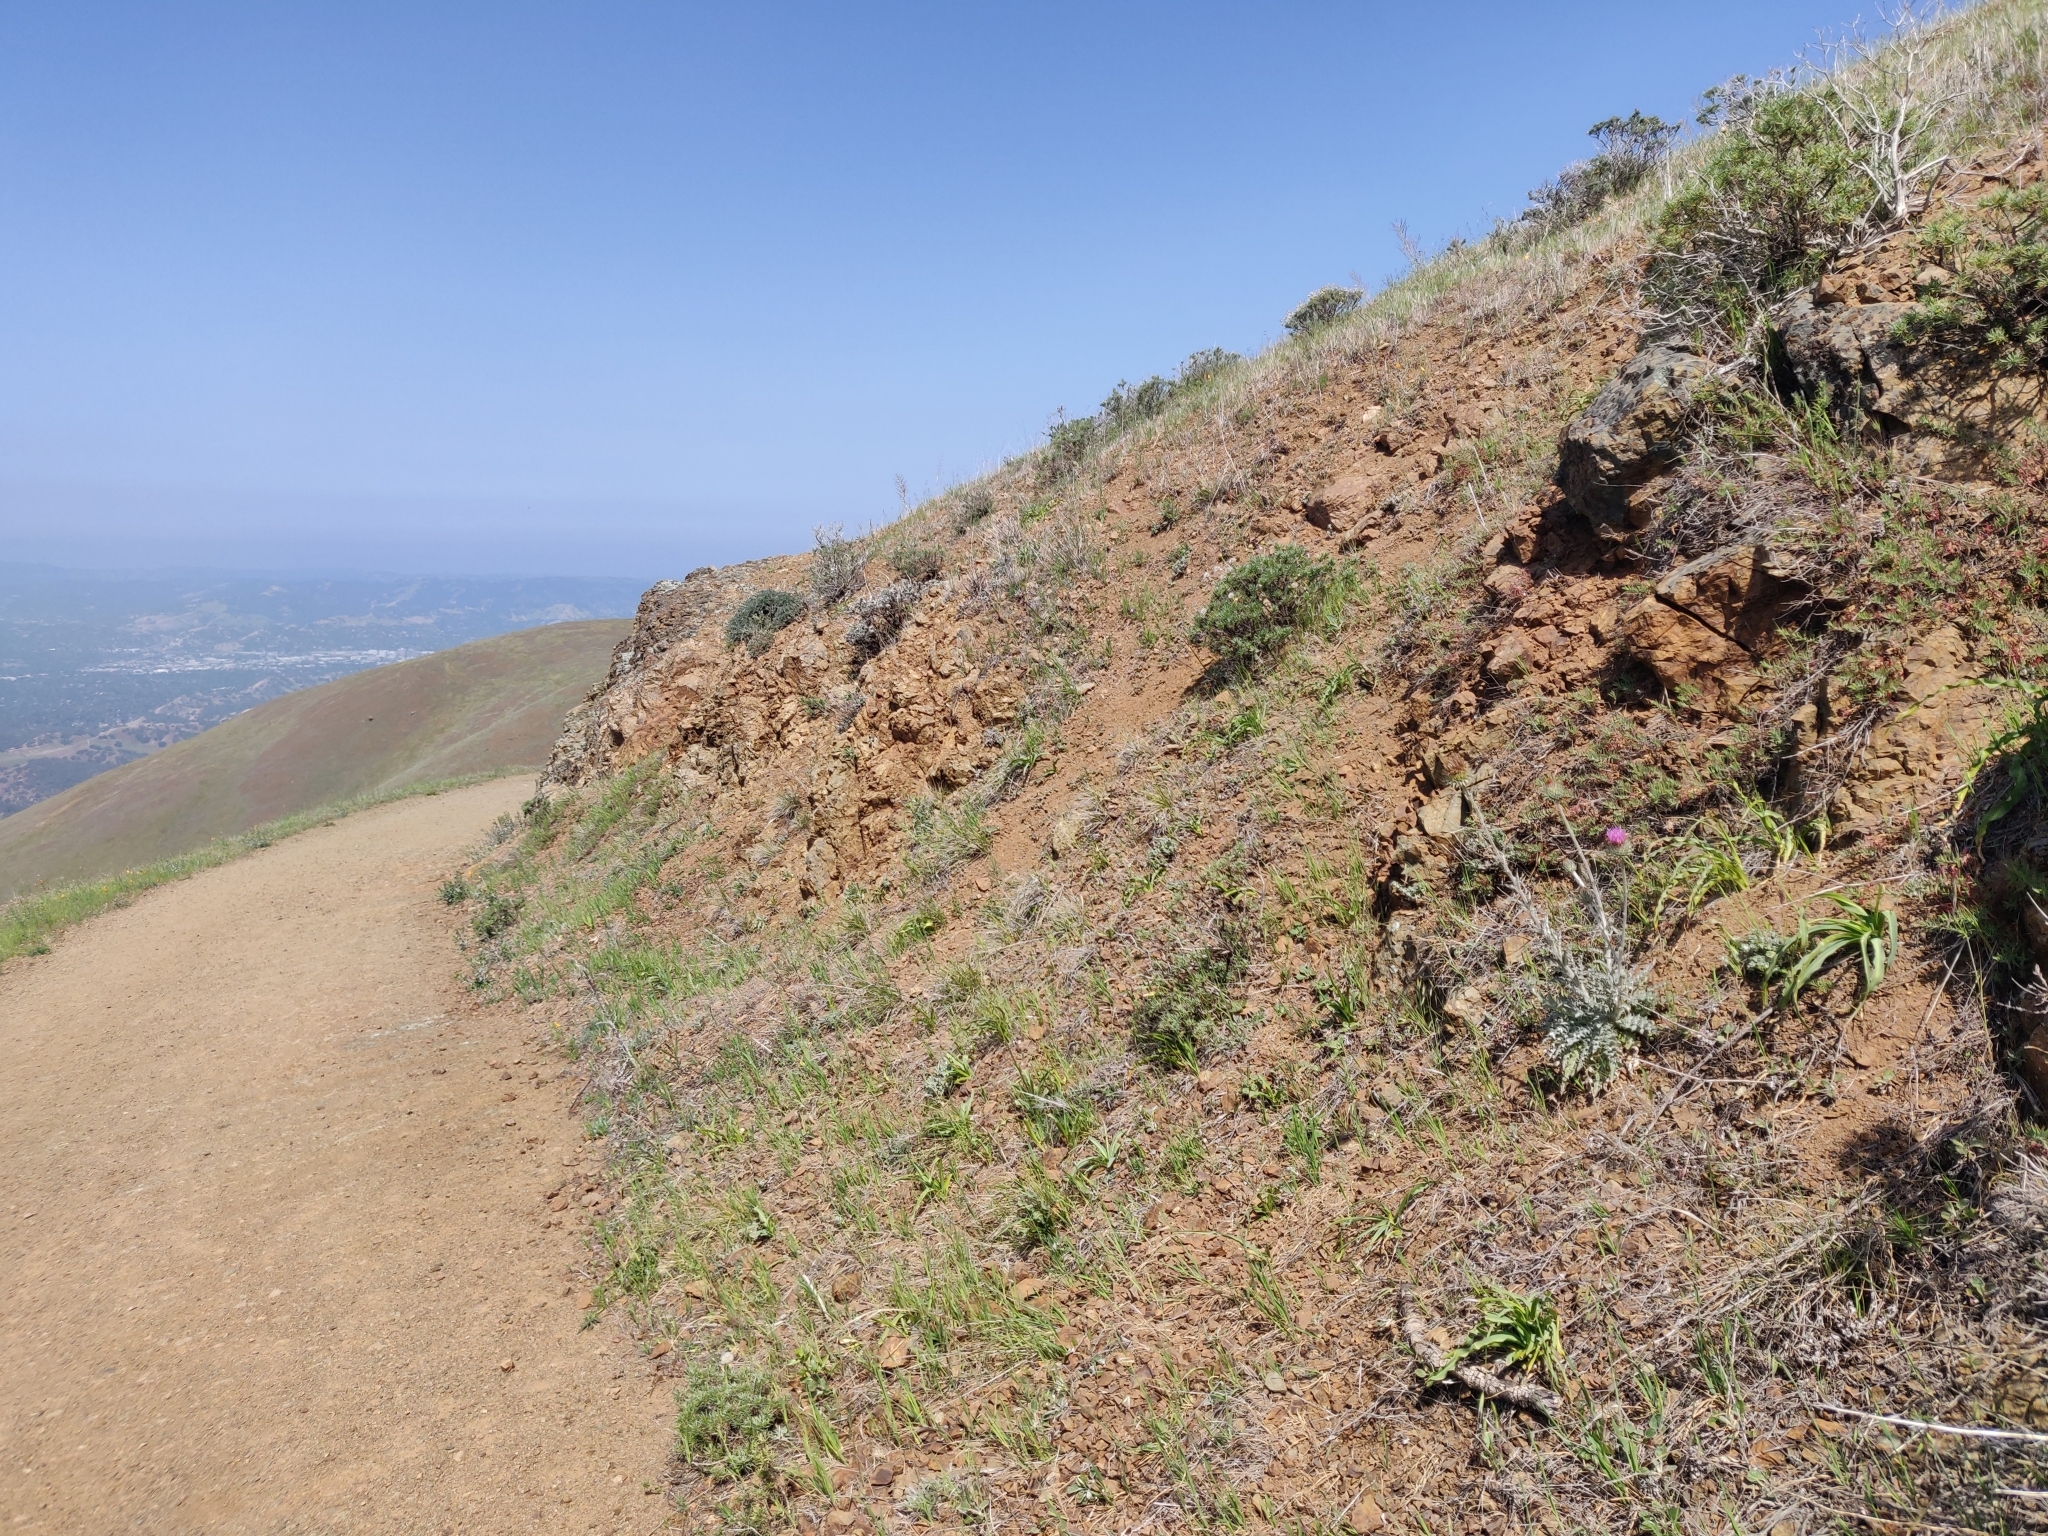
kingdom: Plantae
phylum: Tracheophyta
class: Magnoliopsida
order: Asterales
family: Asteraceae
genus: Cirsium
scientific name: Cirsium occidentale
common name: Western thistle
